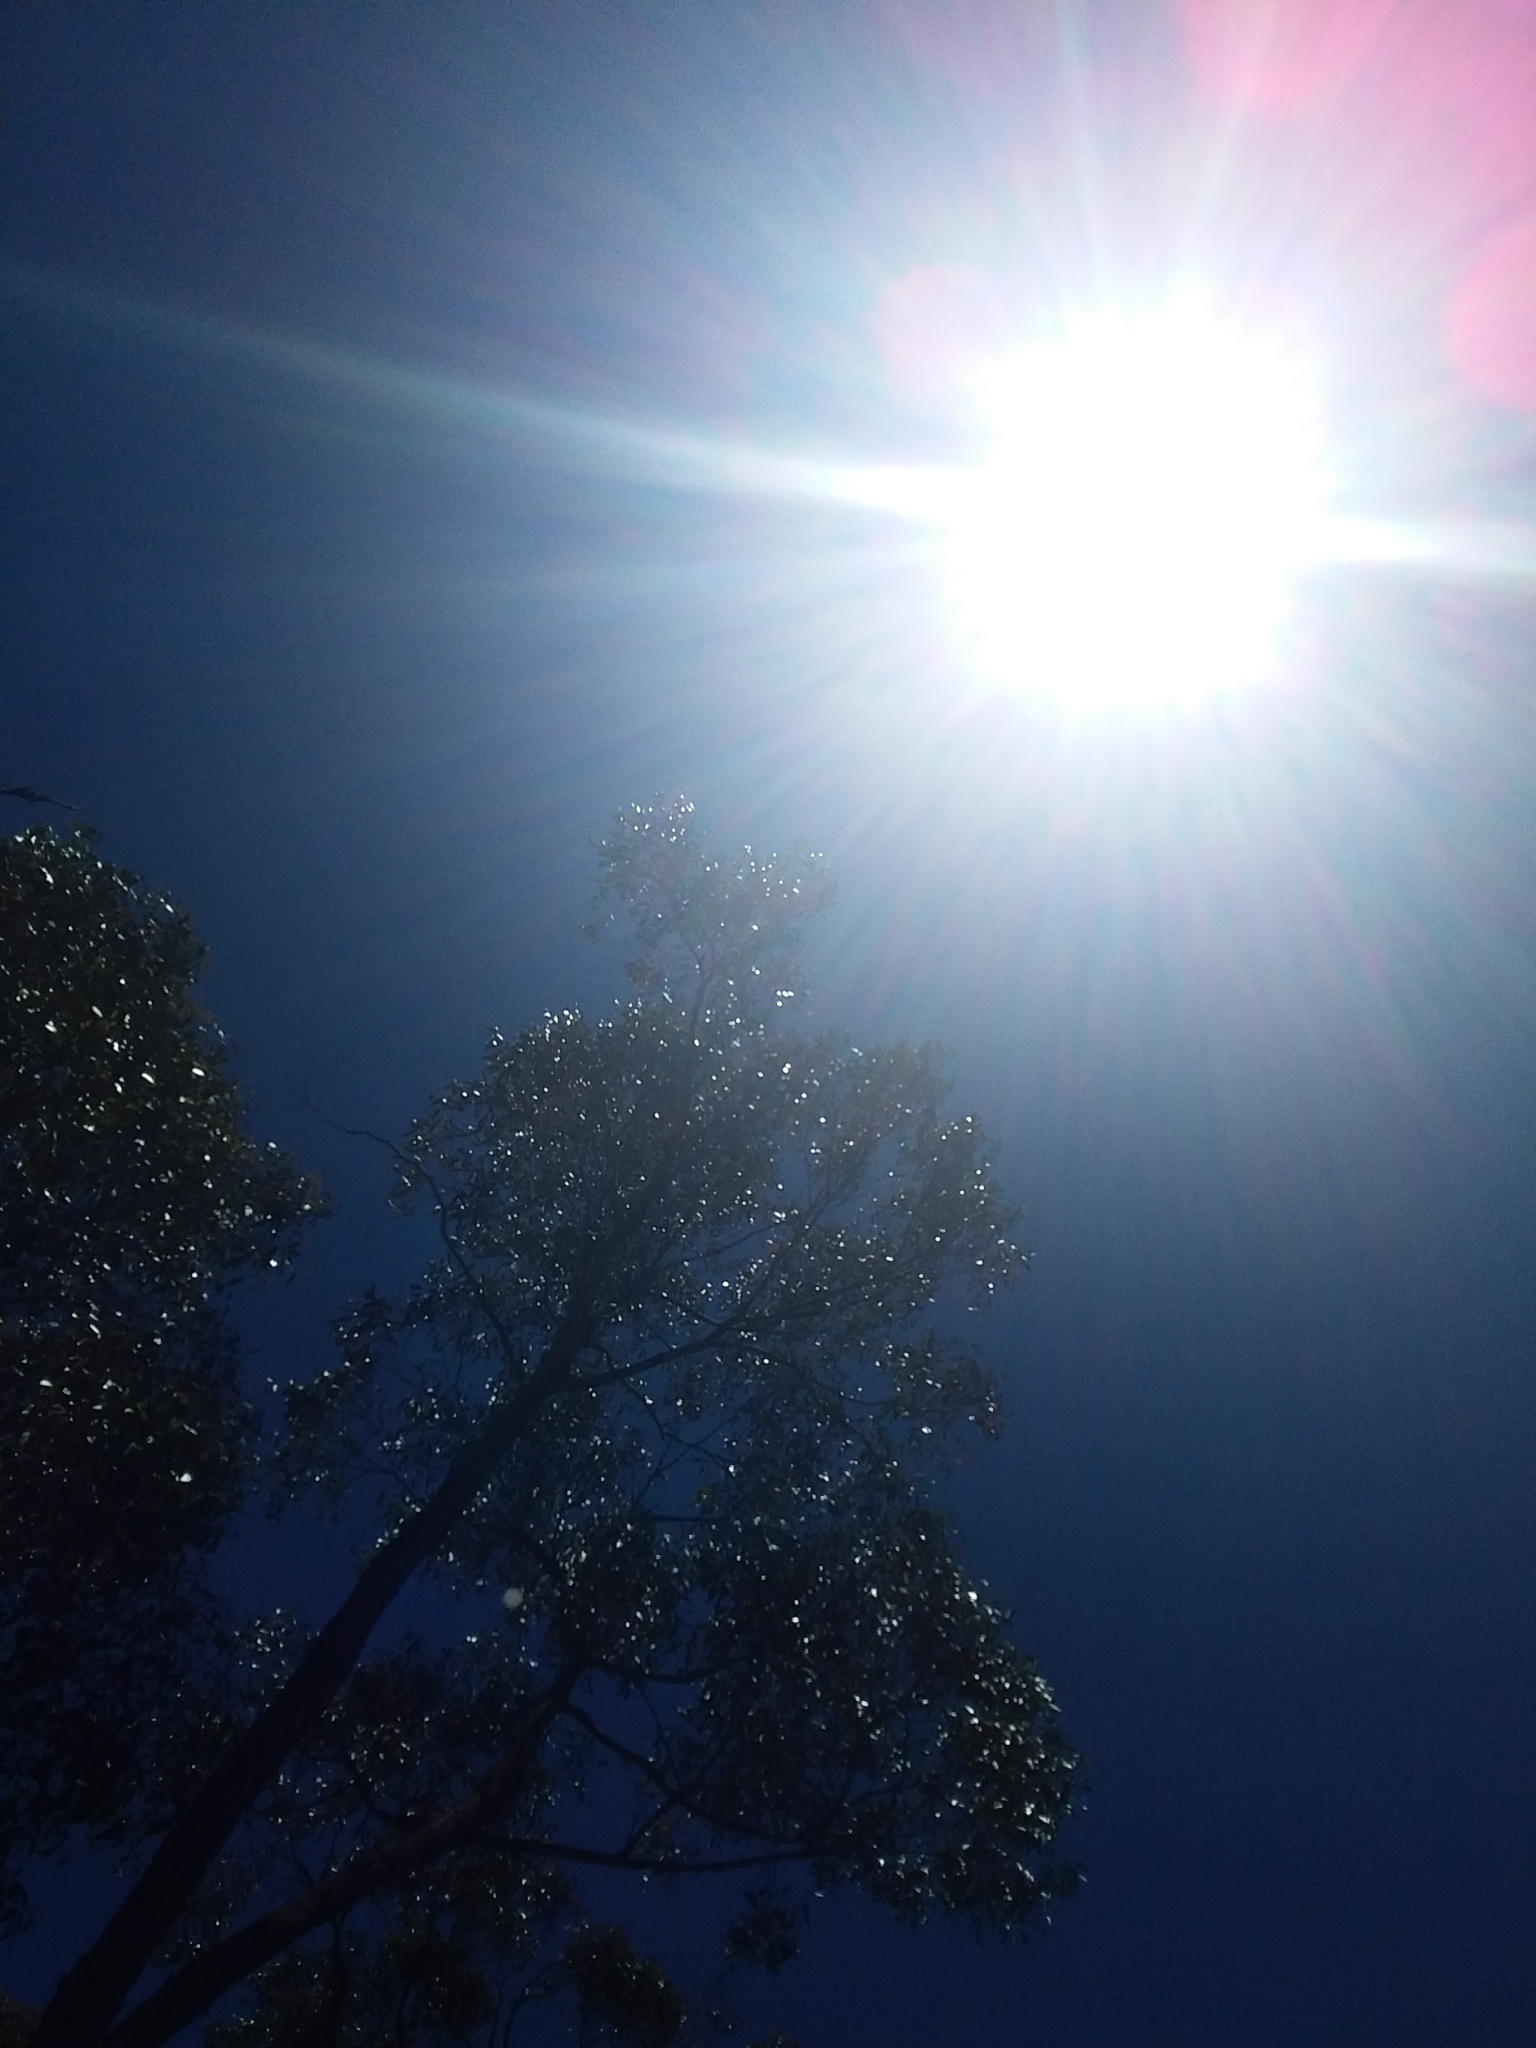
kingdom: Plantae
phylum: Tracheophyta
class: Liliopsida
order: Asparagales
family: Orchidaceae
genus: Dipodium
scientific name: Dipodium roseum
